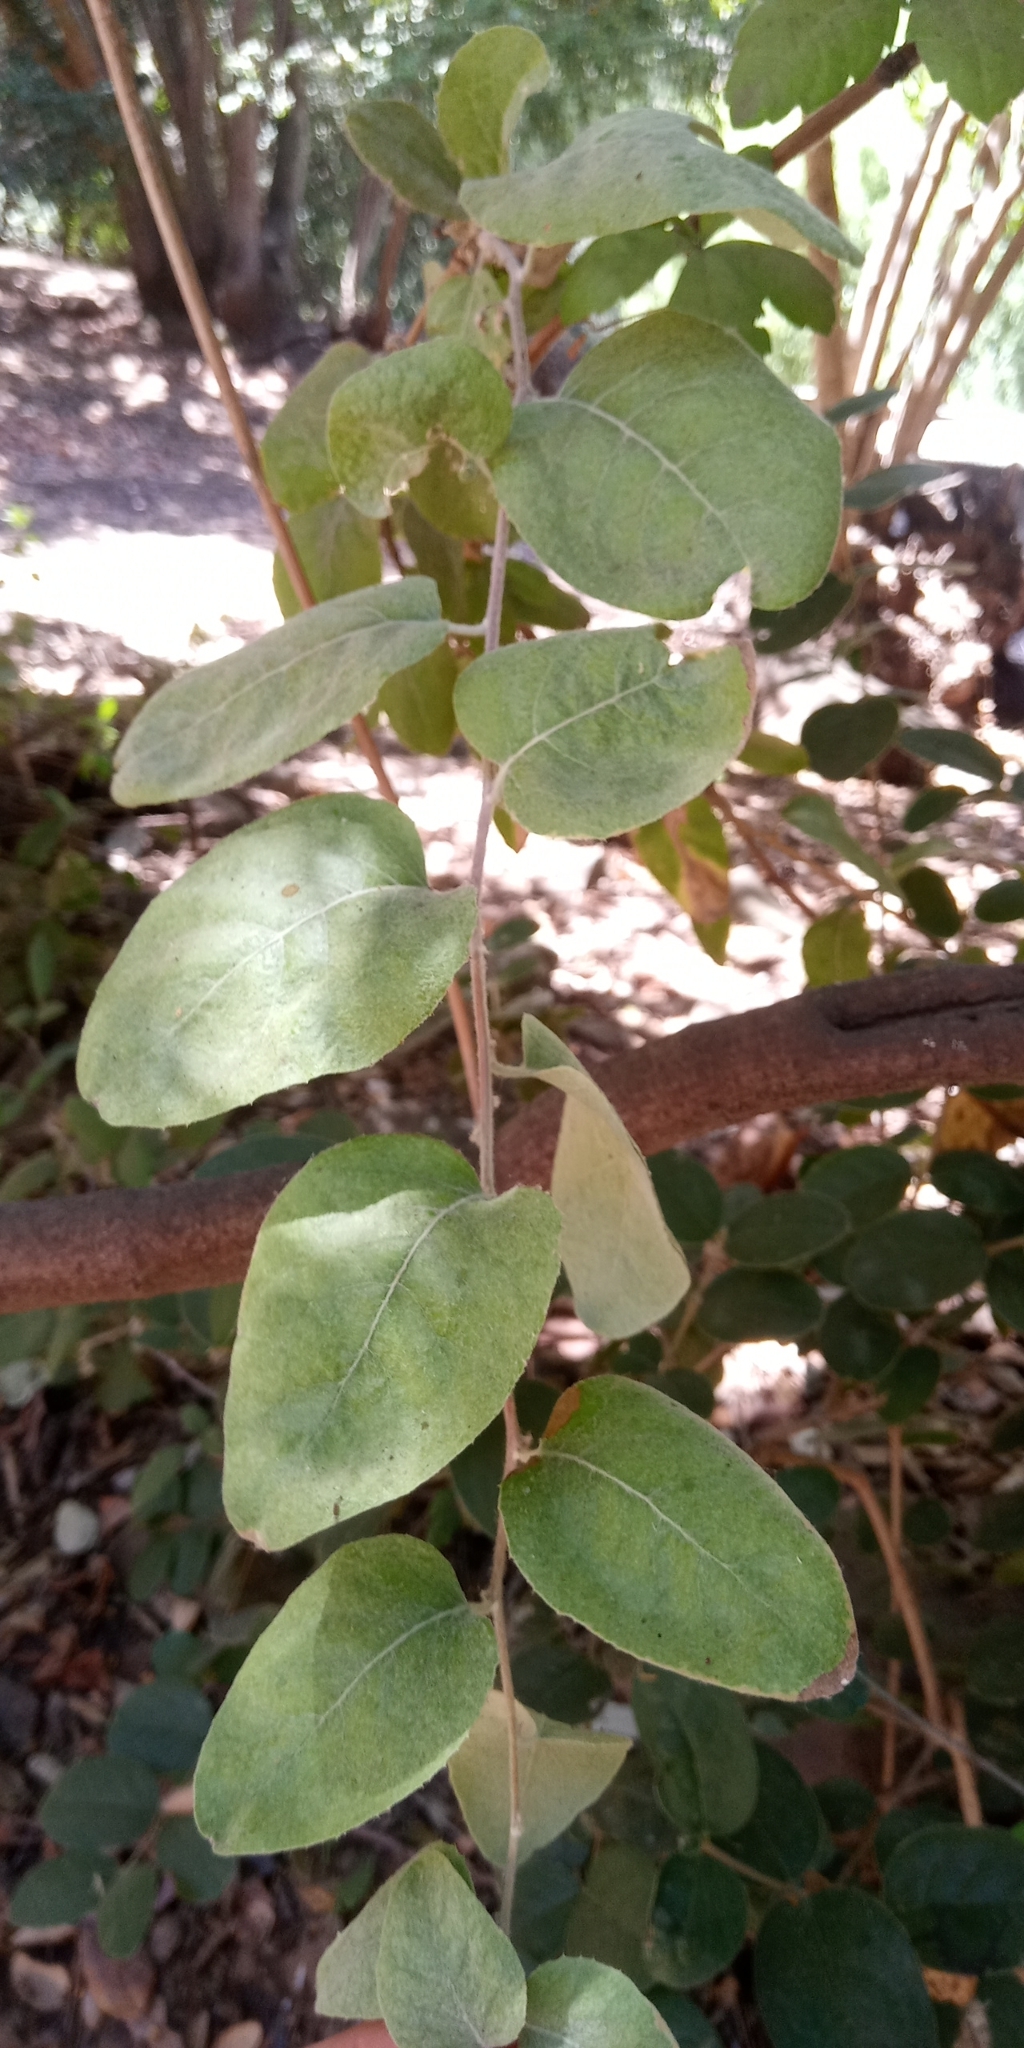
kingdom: Plantae
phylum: Tracheophyta
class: Magnoliopsida
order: Asterales
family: Asteraceae
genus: Proustia
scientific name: Proustia pyrifolia
